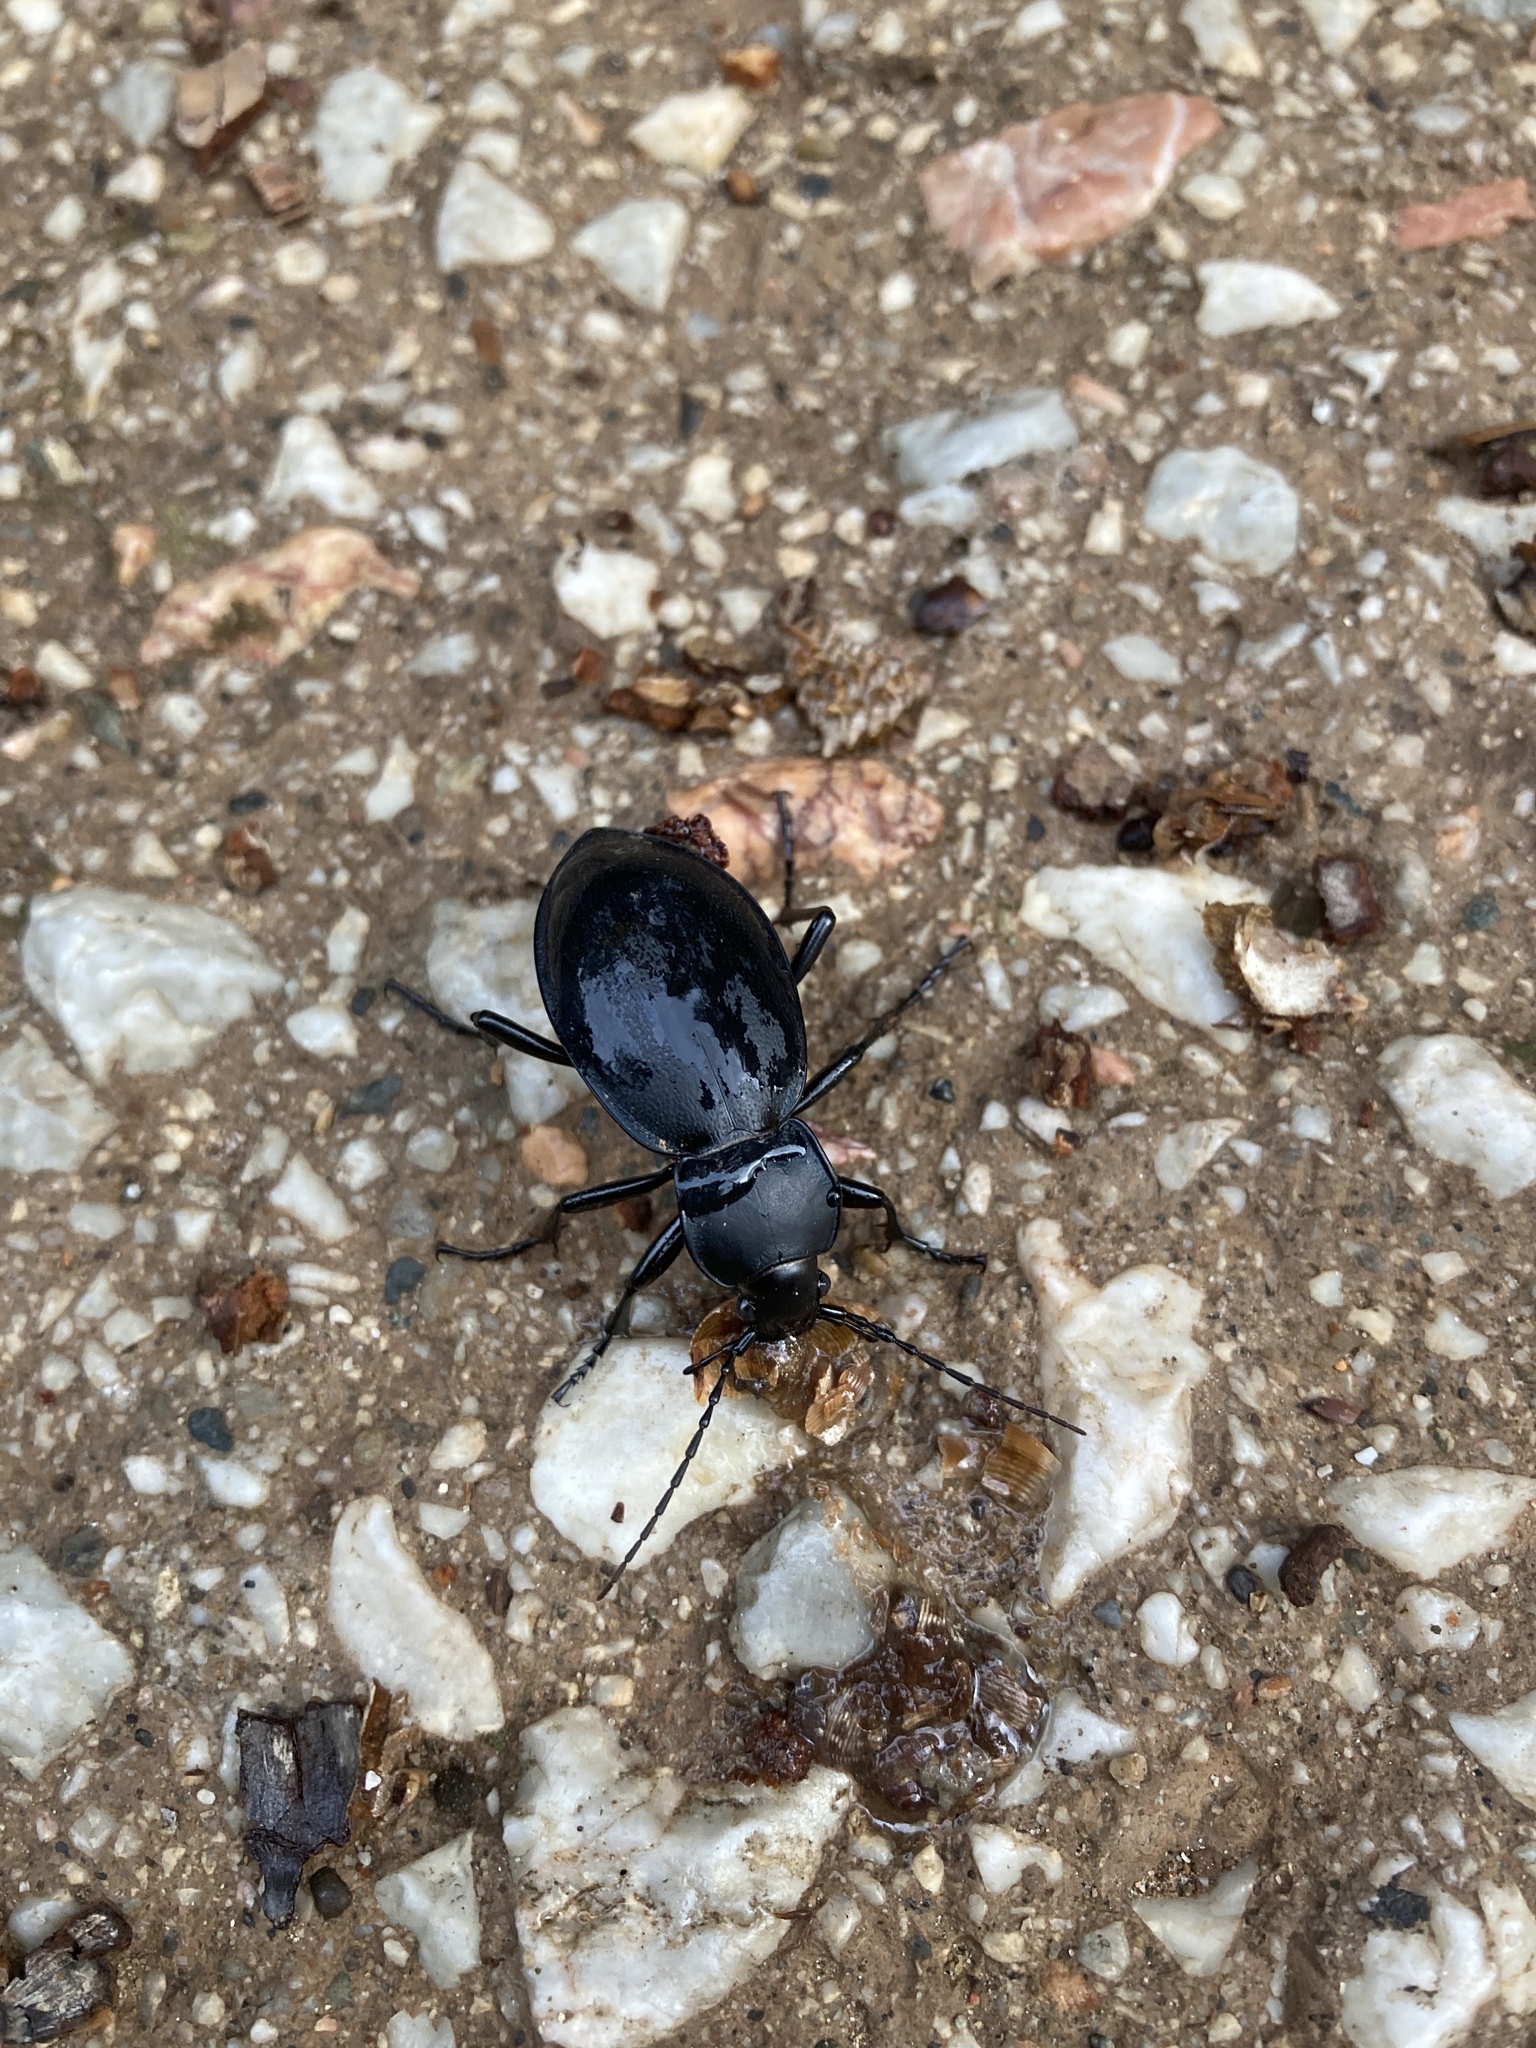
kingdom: Animalia
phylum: Arthropoda
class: Insecta
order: Coleoptera
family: Carabidae
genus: Carabus
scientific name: Carabus coriaceus
